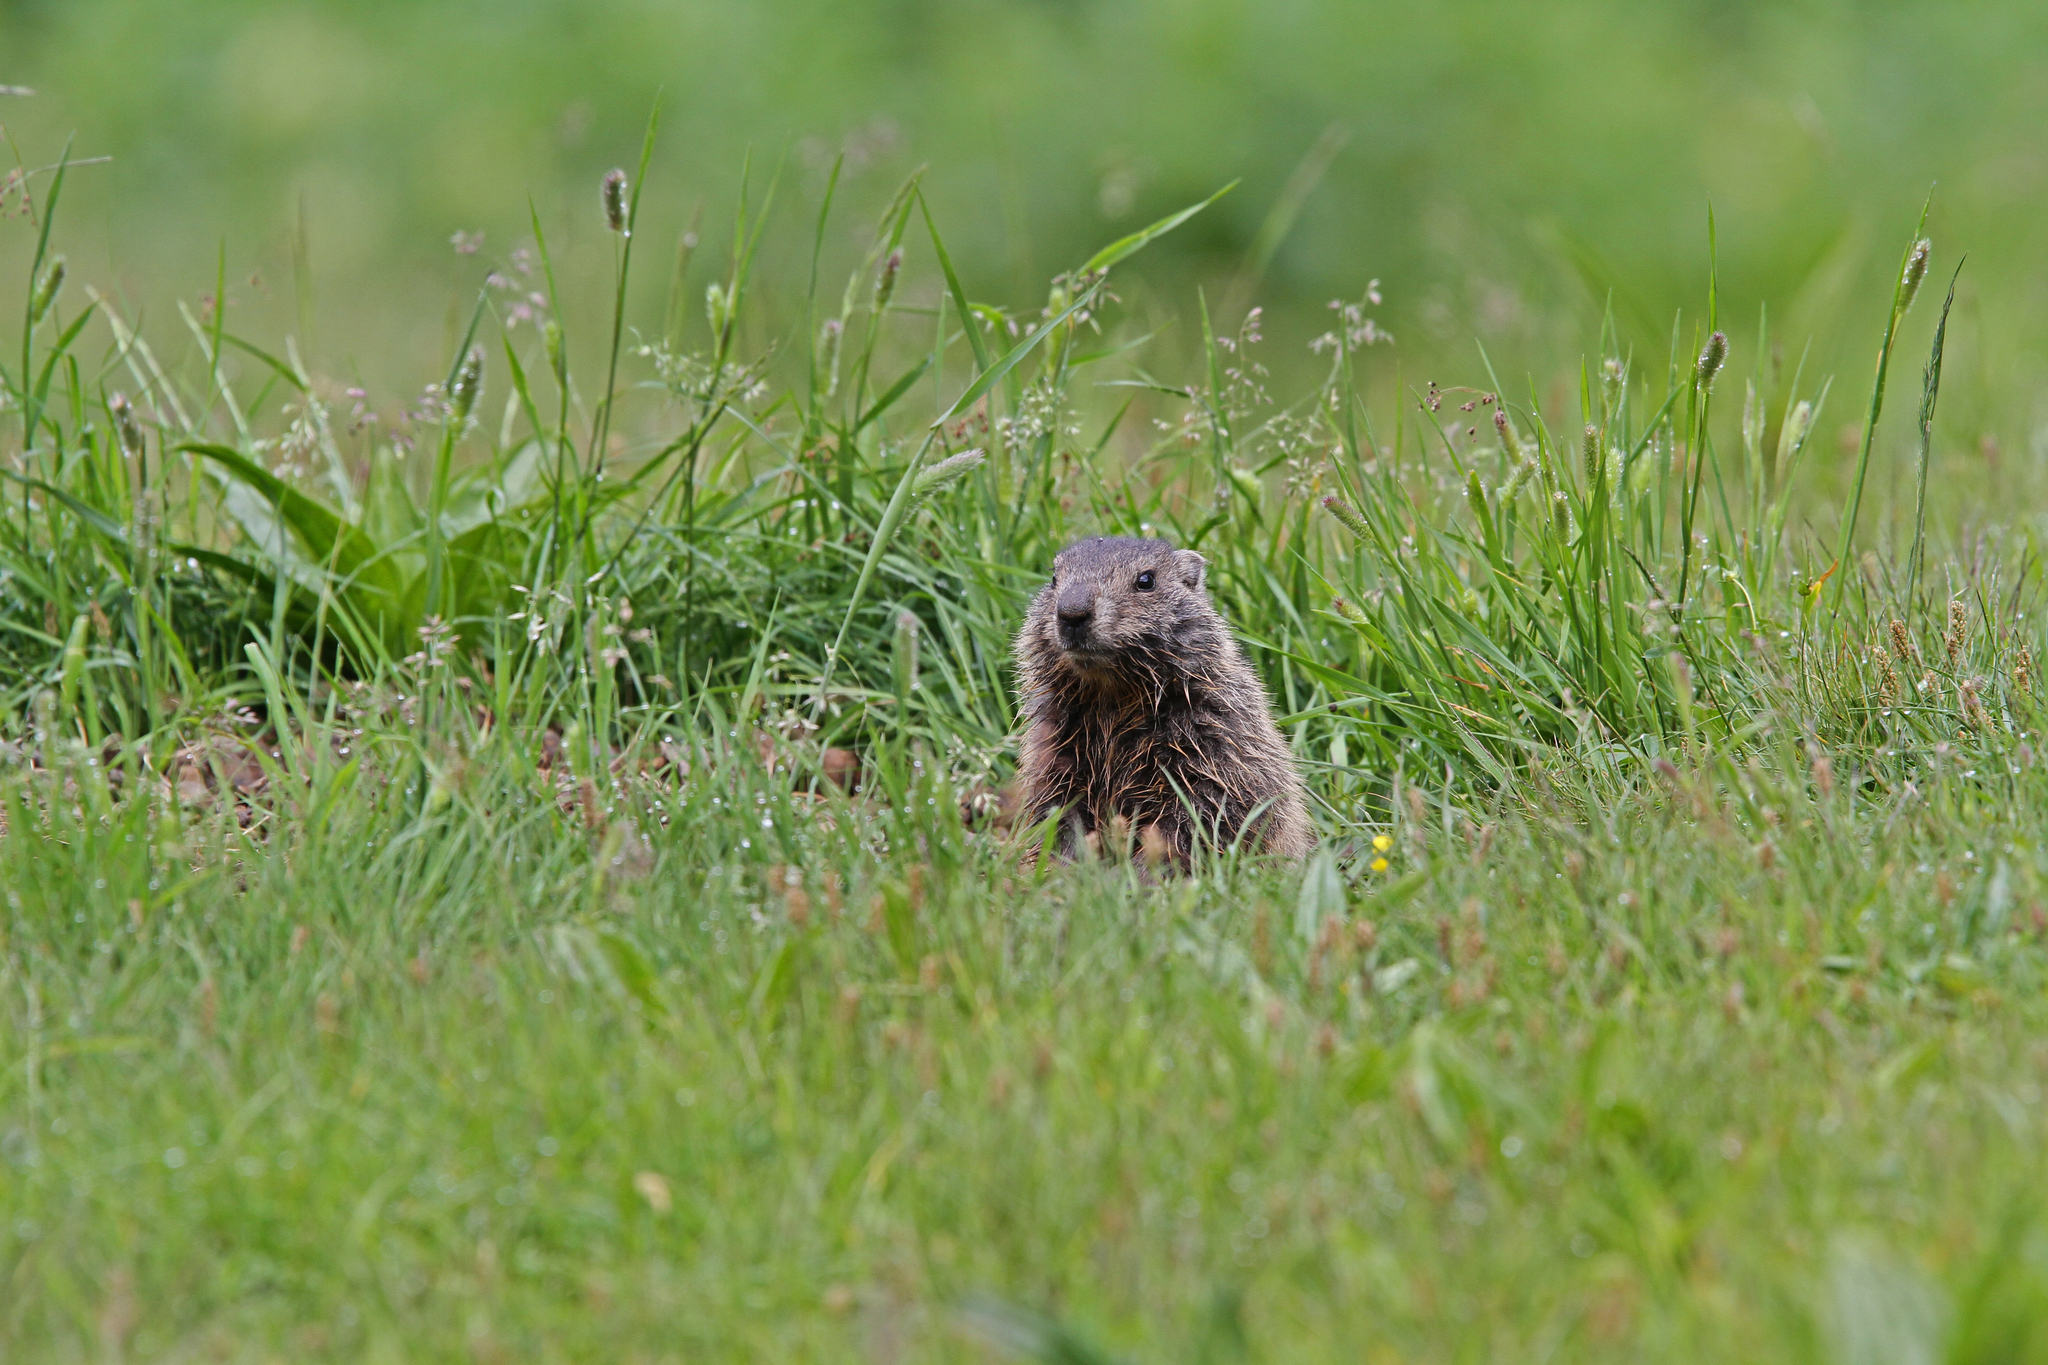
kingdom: Animalia
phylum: Chordata
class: Mammalia
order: Rodentia
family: Sciuridae
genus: Marmota
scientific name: Marmota marmota
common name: Alpine marmot
